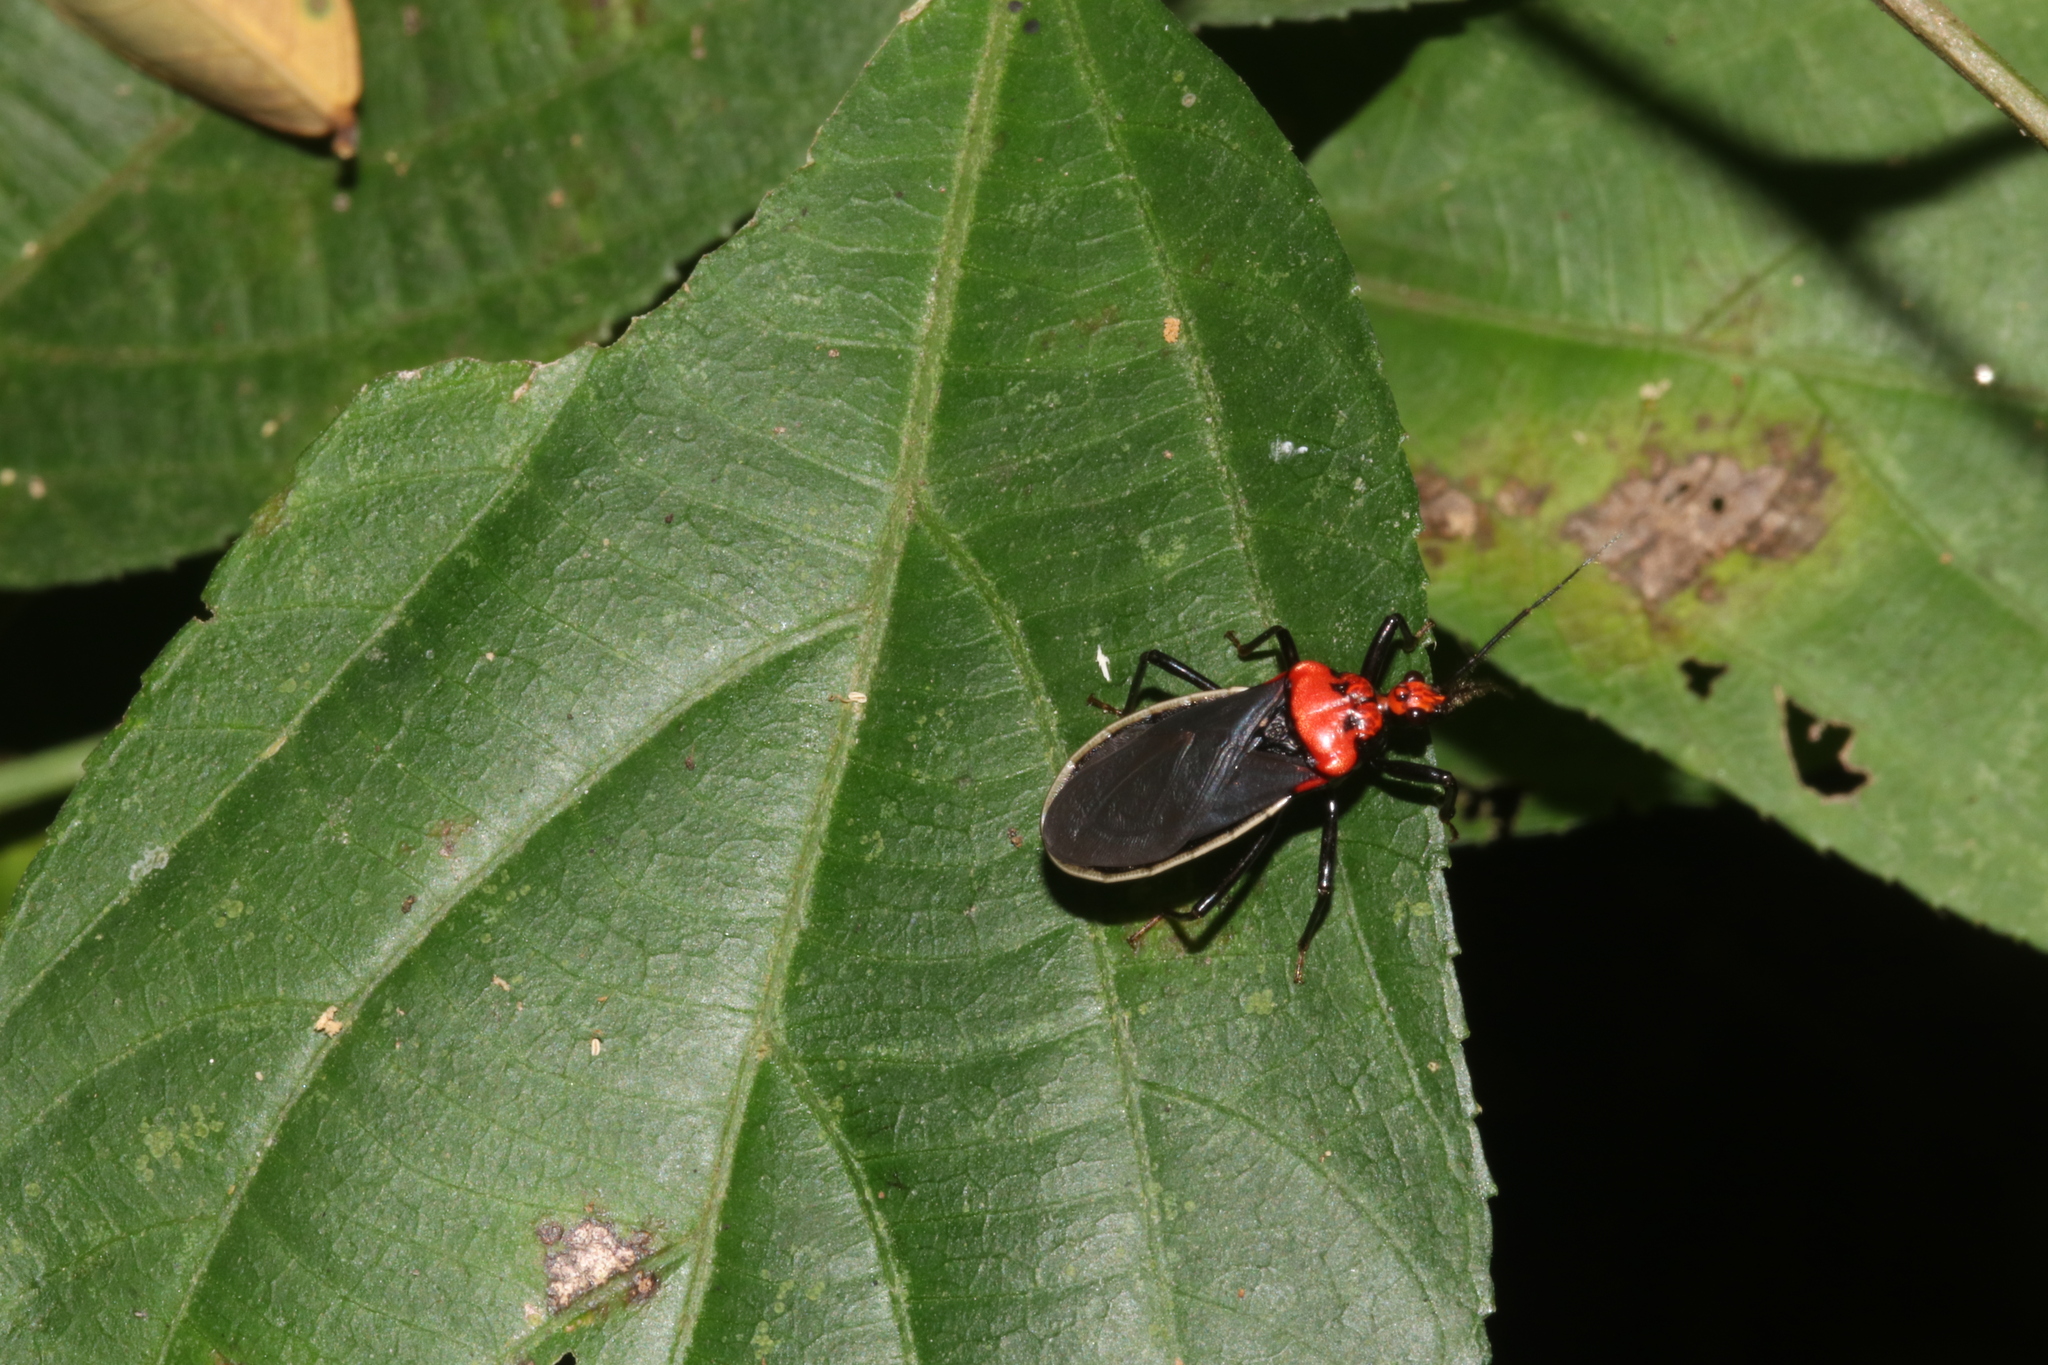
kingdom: Animalia
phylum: Arthropoda
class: Insecta
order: Hemiptera
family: Reduviidae
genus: Rhiginia
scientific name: Rhiginia bimaculata
